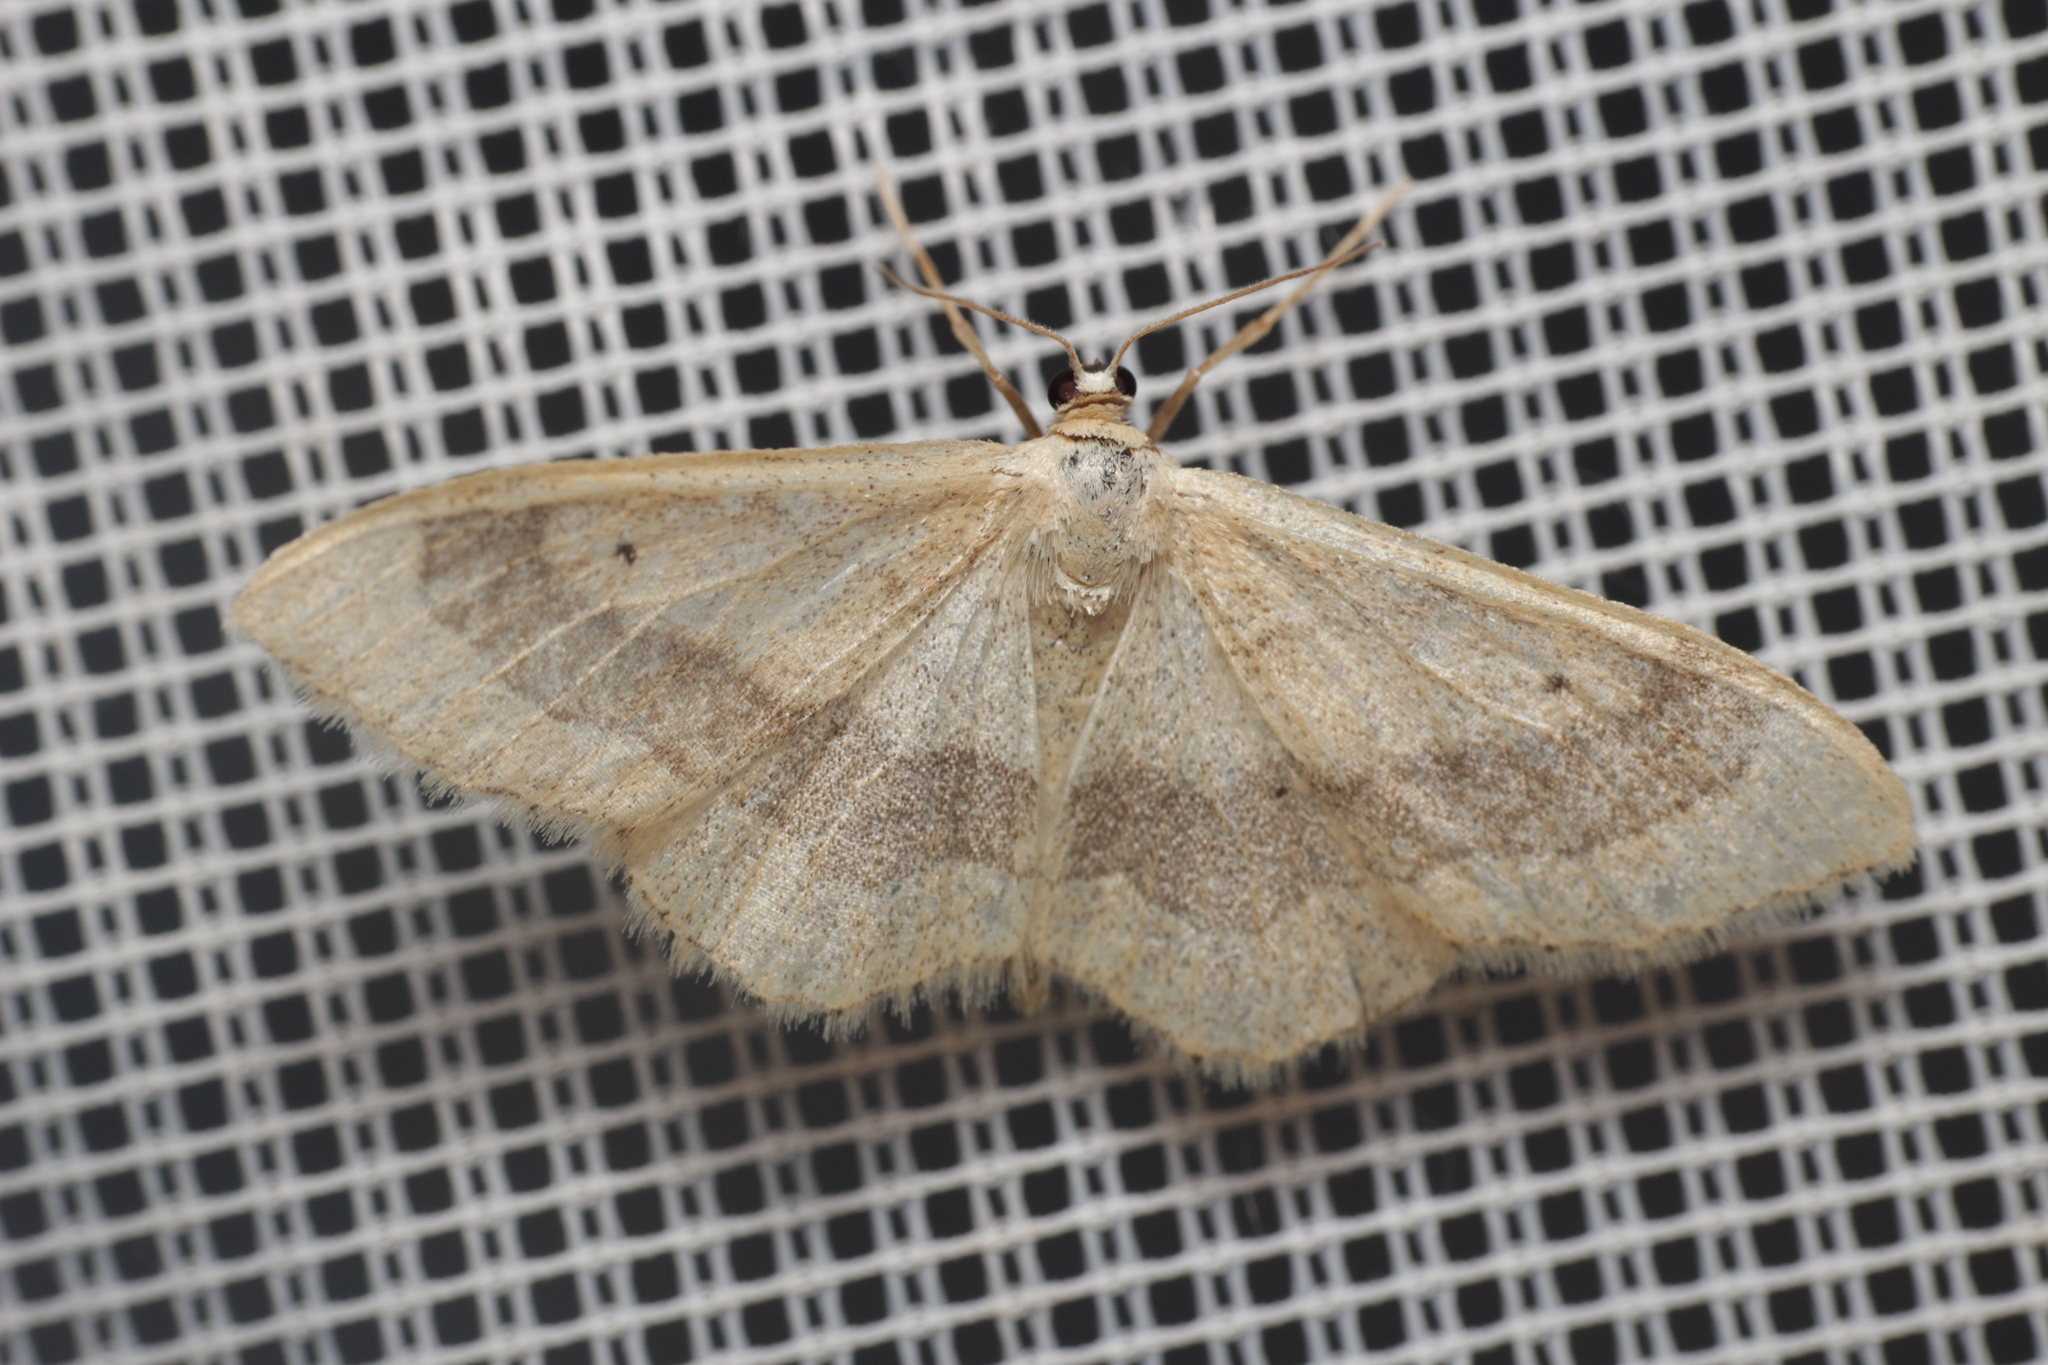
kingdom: Animalia
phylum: Arthropoda
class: Insecta
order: Lepidoptera
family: Geometridae
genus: Idaea
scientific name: Idaea aversata
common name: Riband wave
